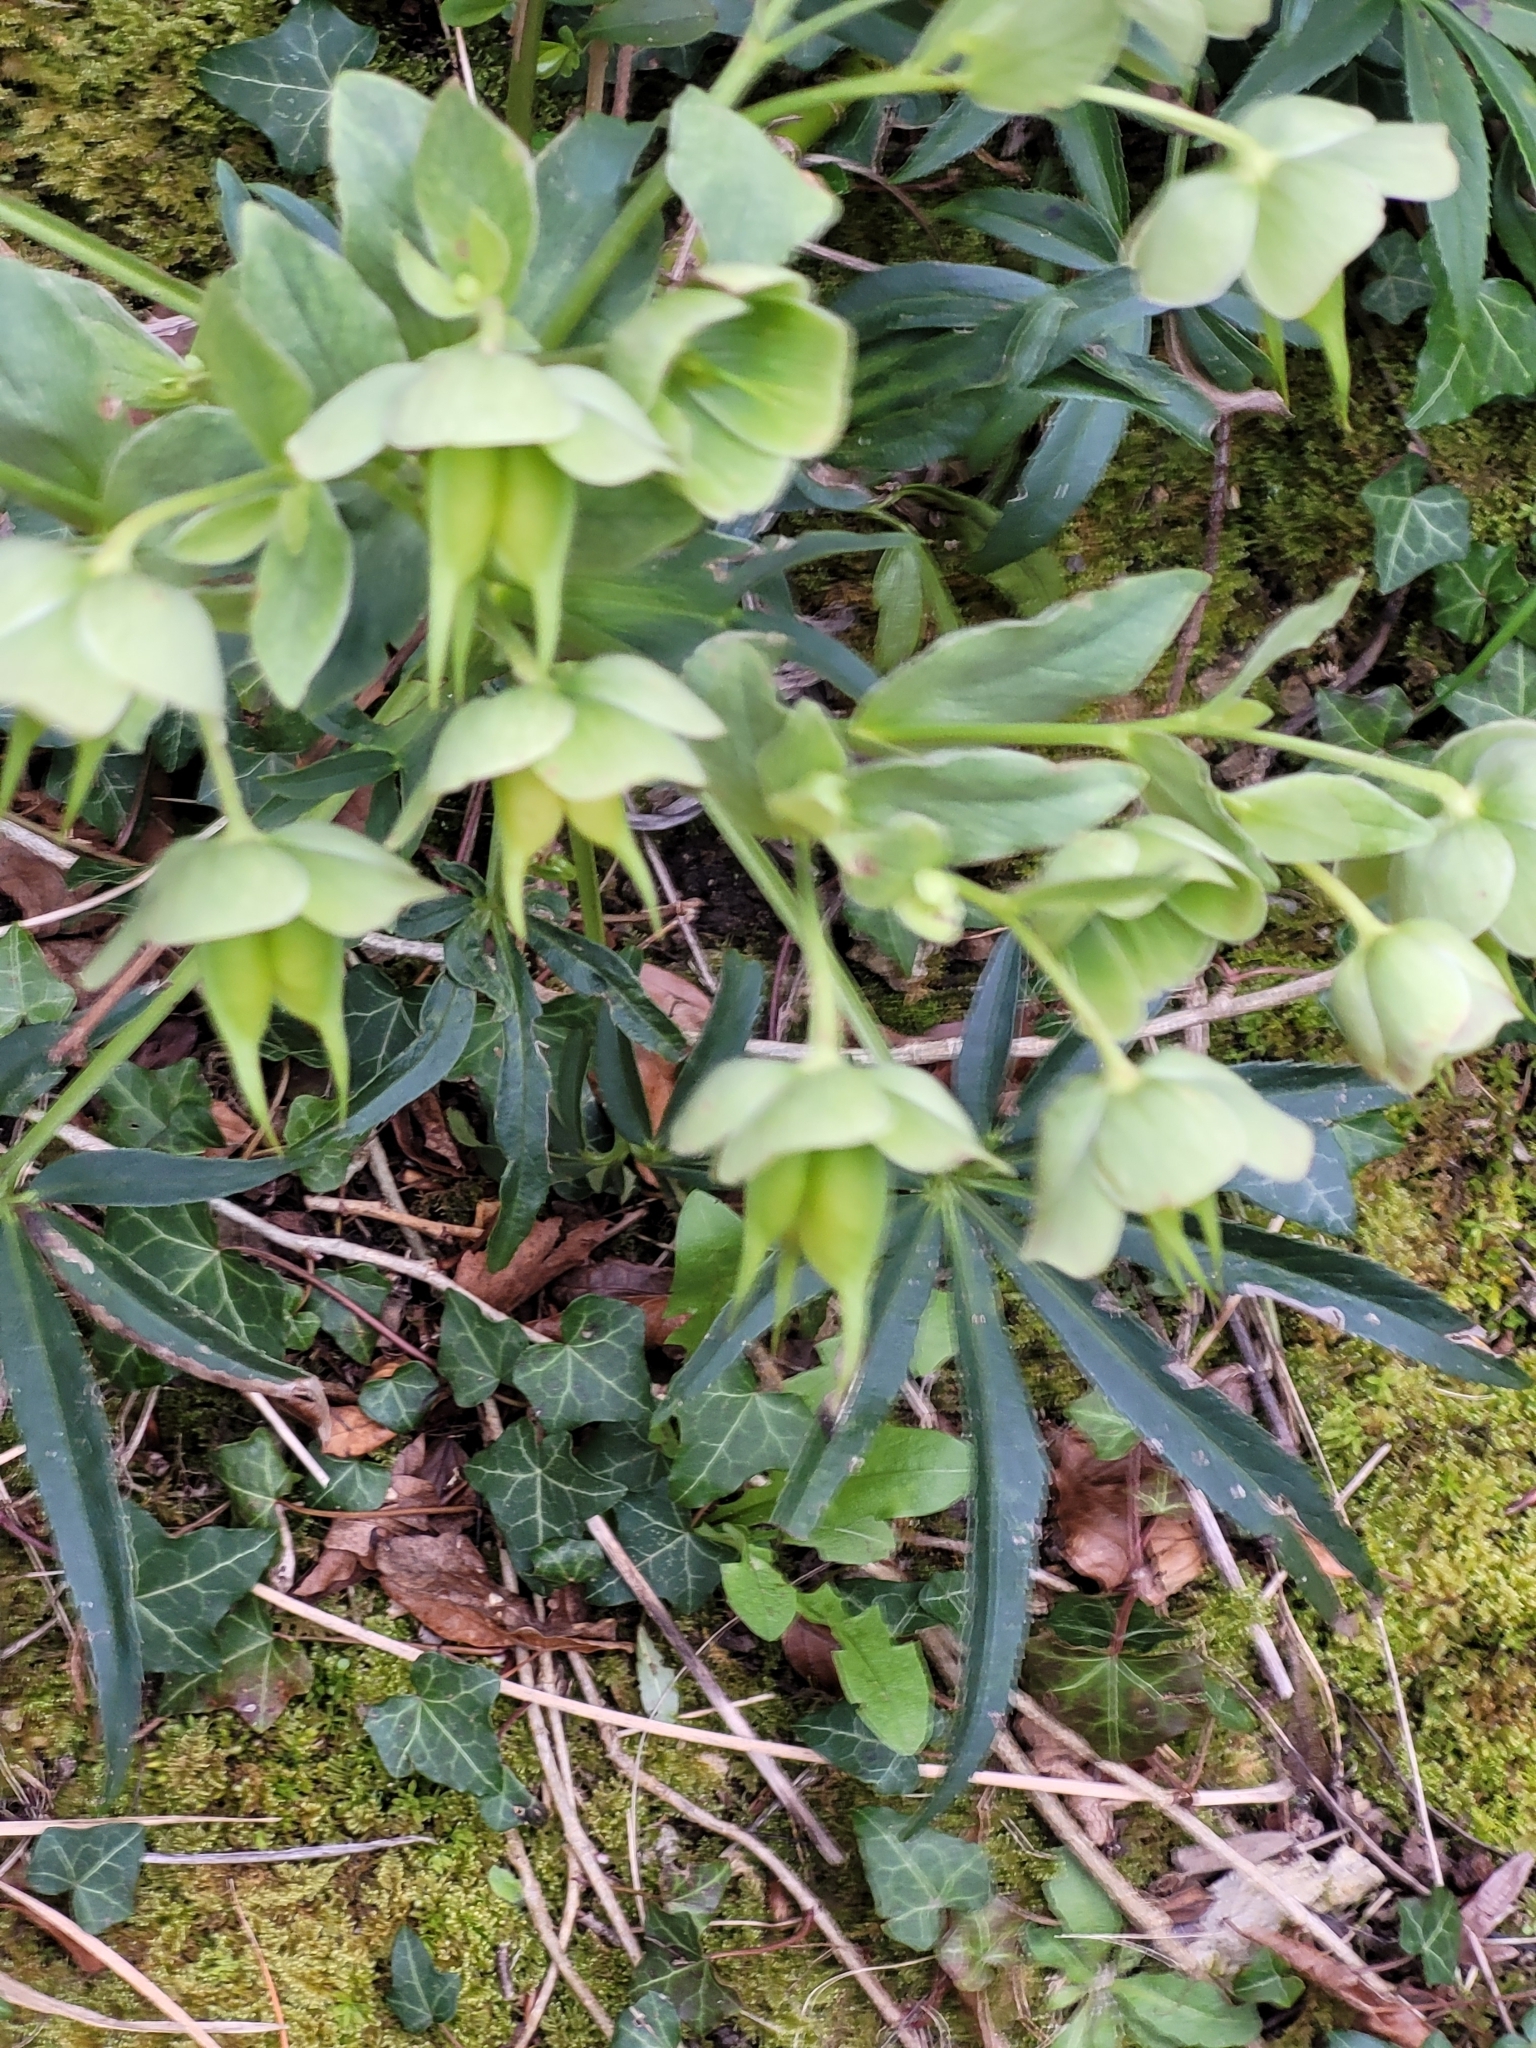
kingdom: Plantae
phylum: Tracheophyta
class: Magnoliopsida
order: Ranunculales
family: Ranunculaceae
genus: Helleborus
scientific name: Helleborus foetidus
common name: Stinking hellebore
